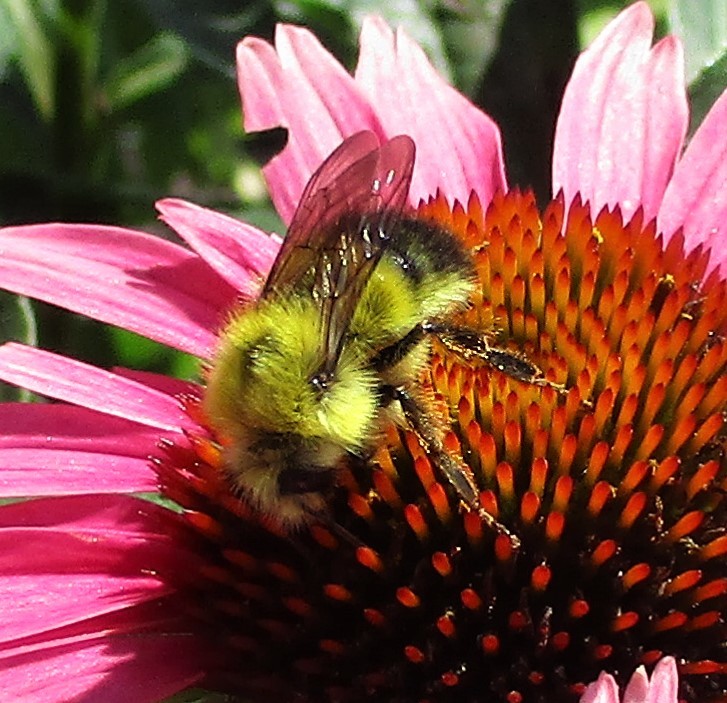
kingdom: Animalia
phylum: Arthropoda
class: Insecta
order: Hymenoptera
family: Apidae
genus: Bombus
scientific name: Bombus flavifrons
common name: Yellow head bumble bee
